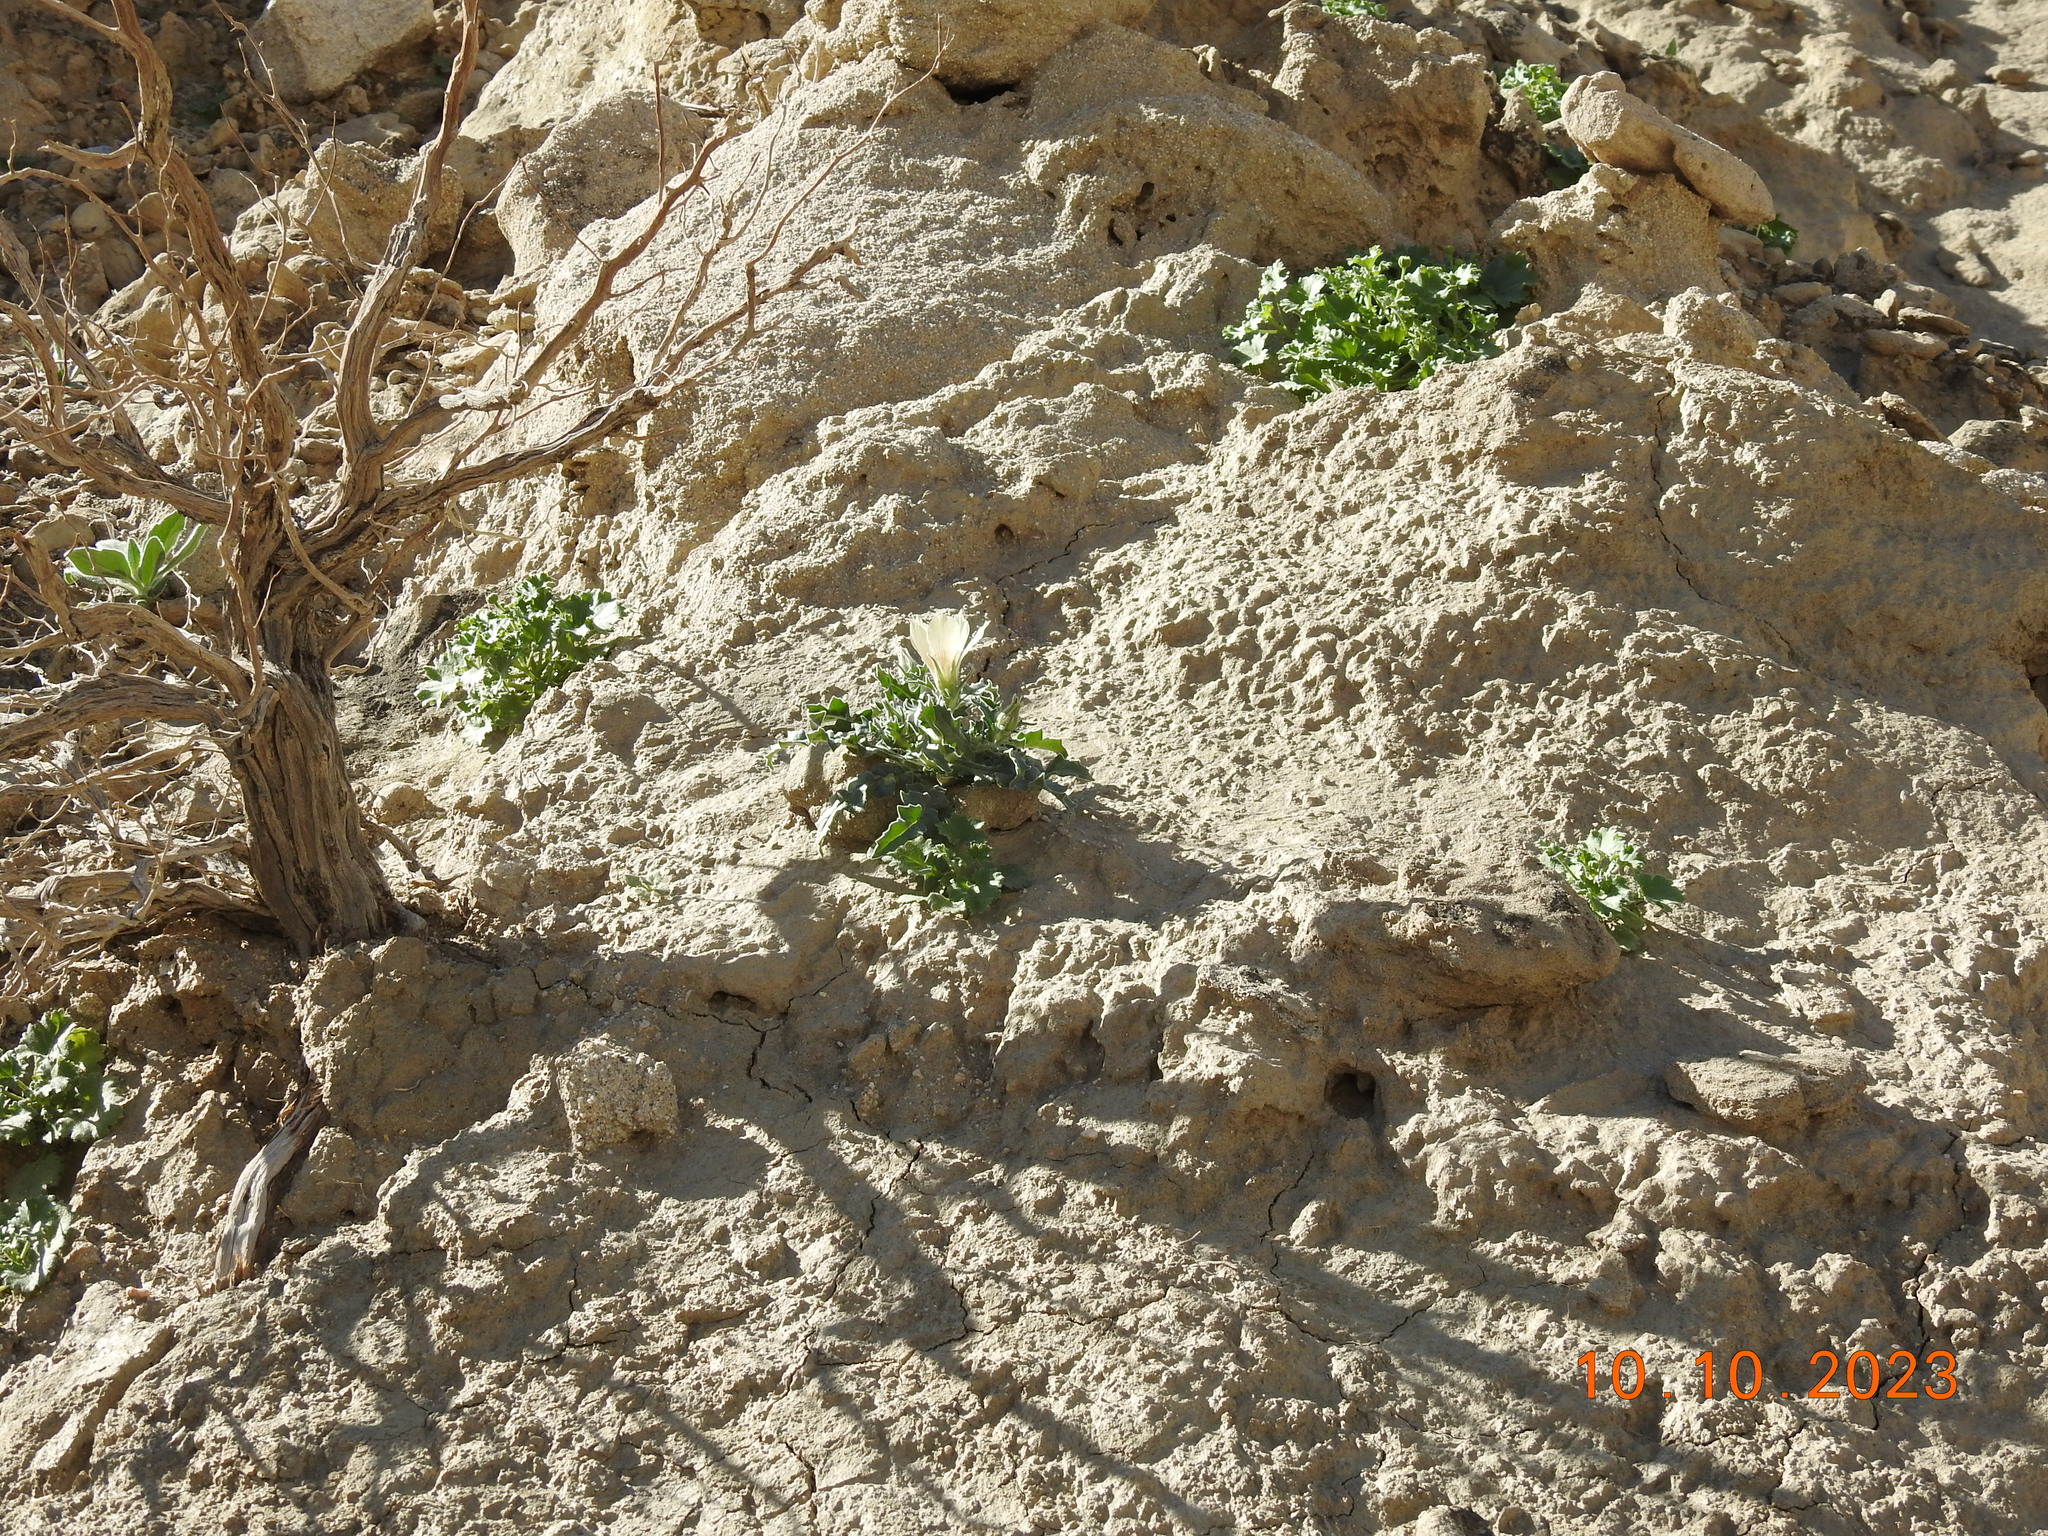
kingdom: Plantae
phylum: Tracheophyta
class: Magnoliopsida
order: Cornales
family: Loasaceae
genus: Mentzelia
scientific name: Mentzelia involucrata
